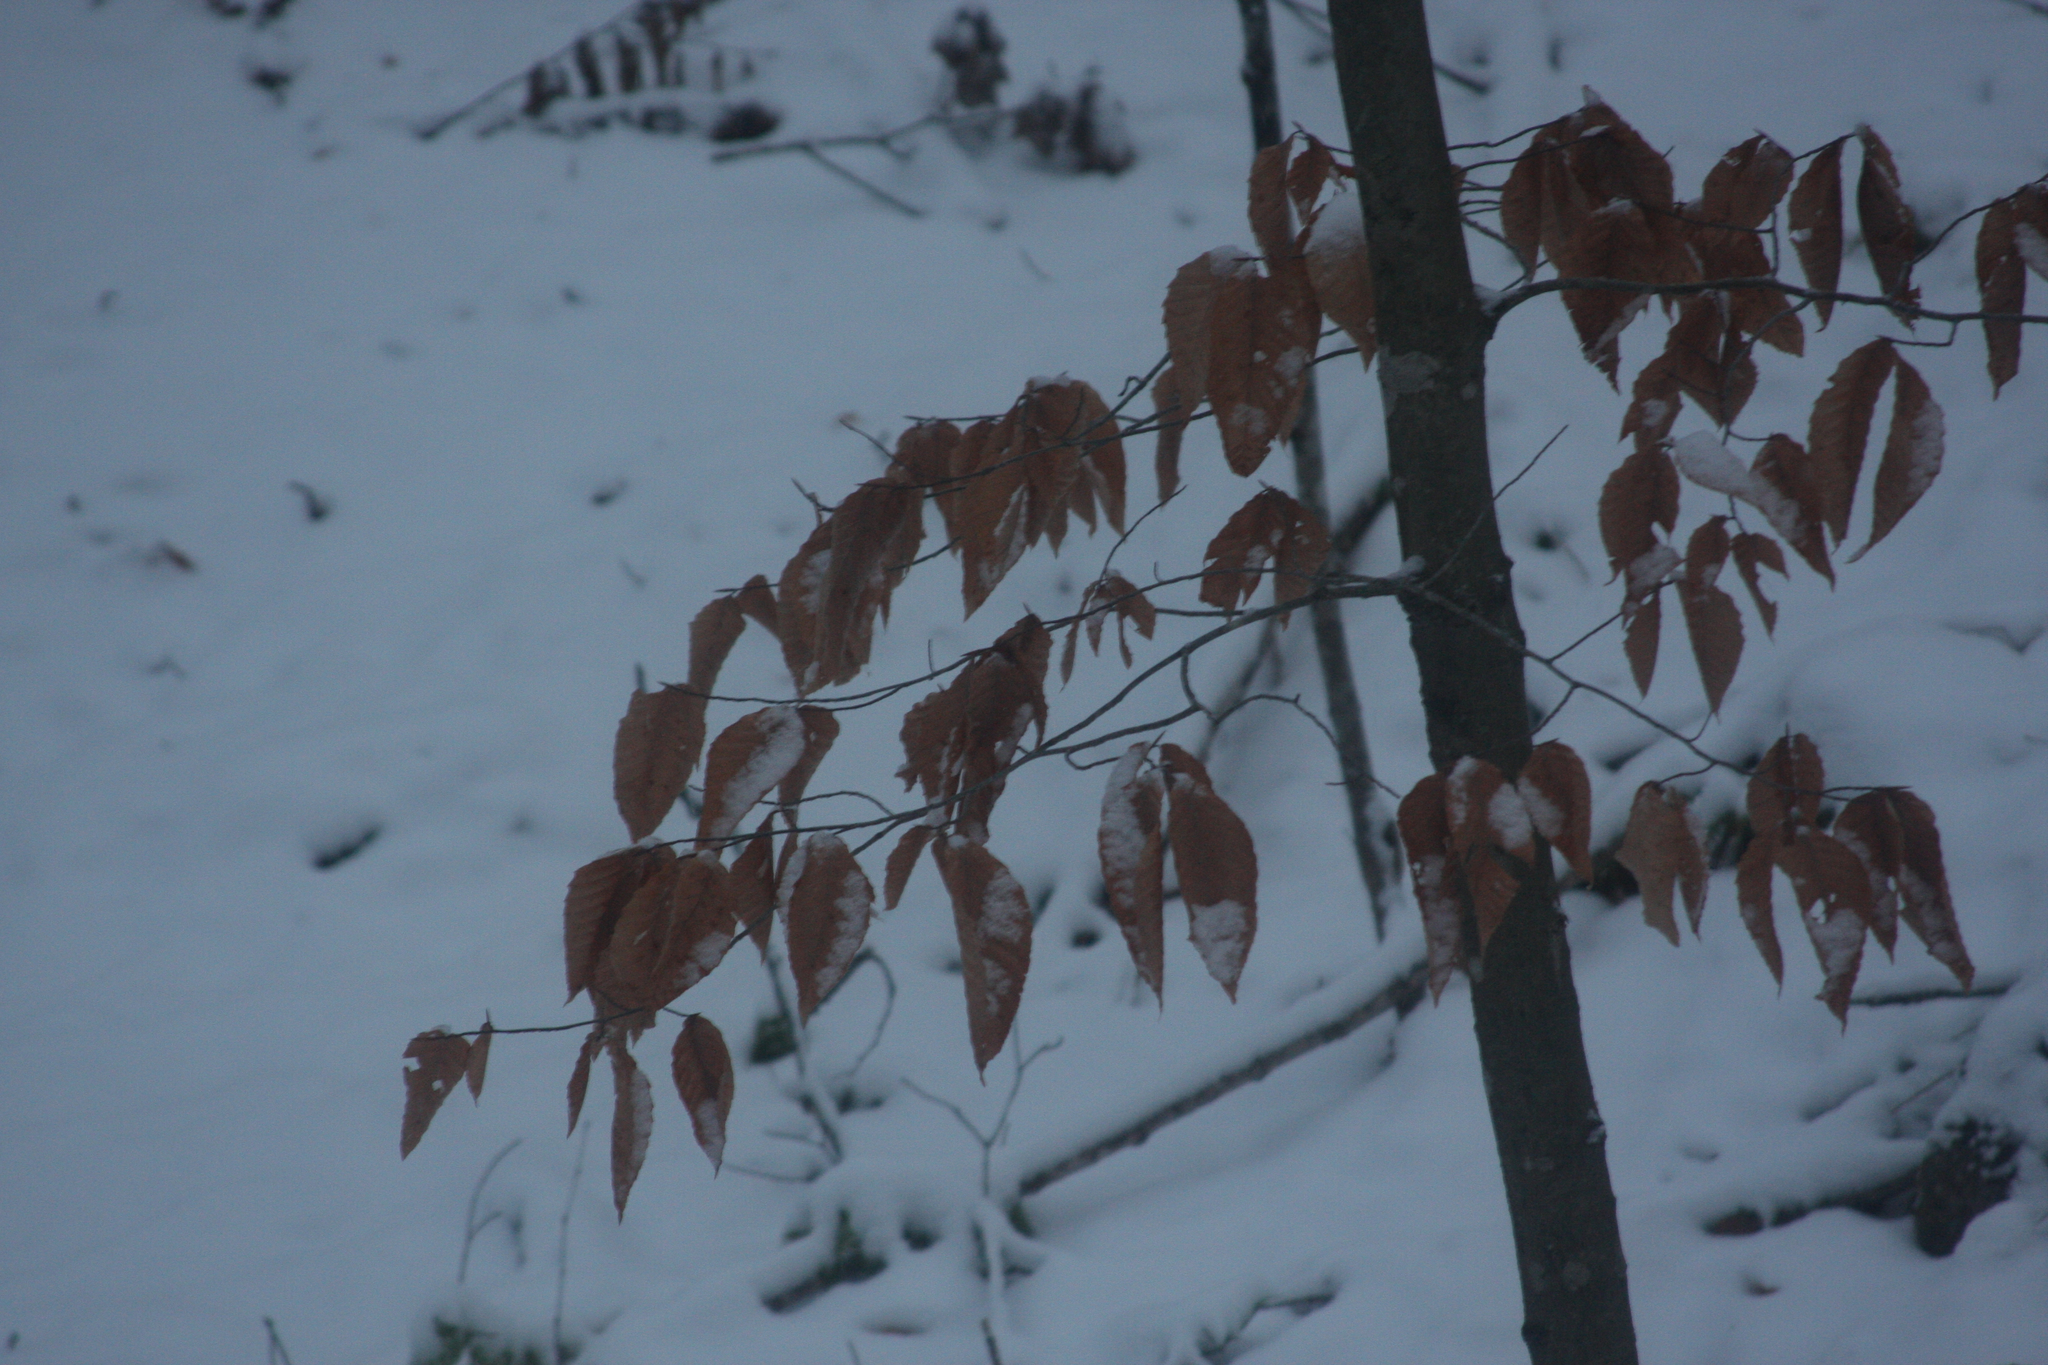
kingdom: Plantae
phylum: Tracheophyta
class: Magnoliopsida
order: Fagales
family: Fagaceae
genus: Fagus
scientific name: Fagus grandifolia
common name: American beech
